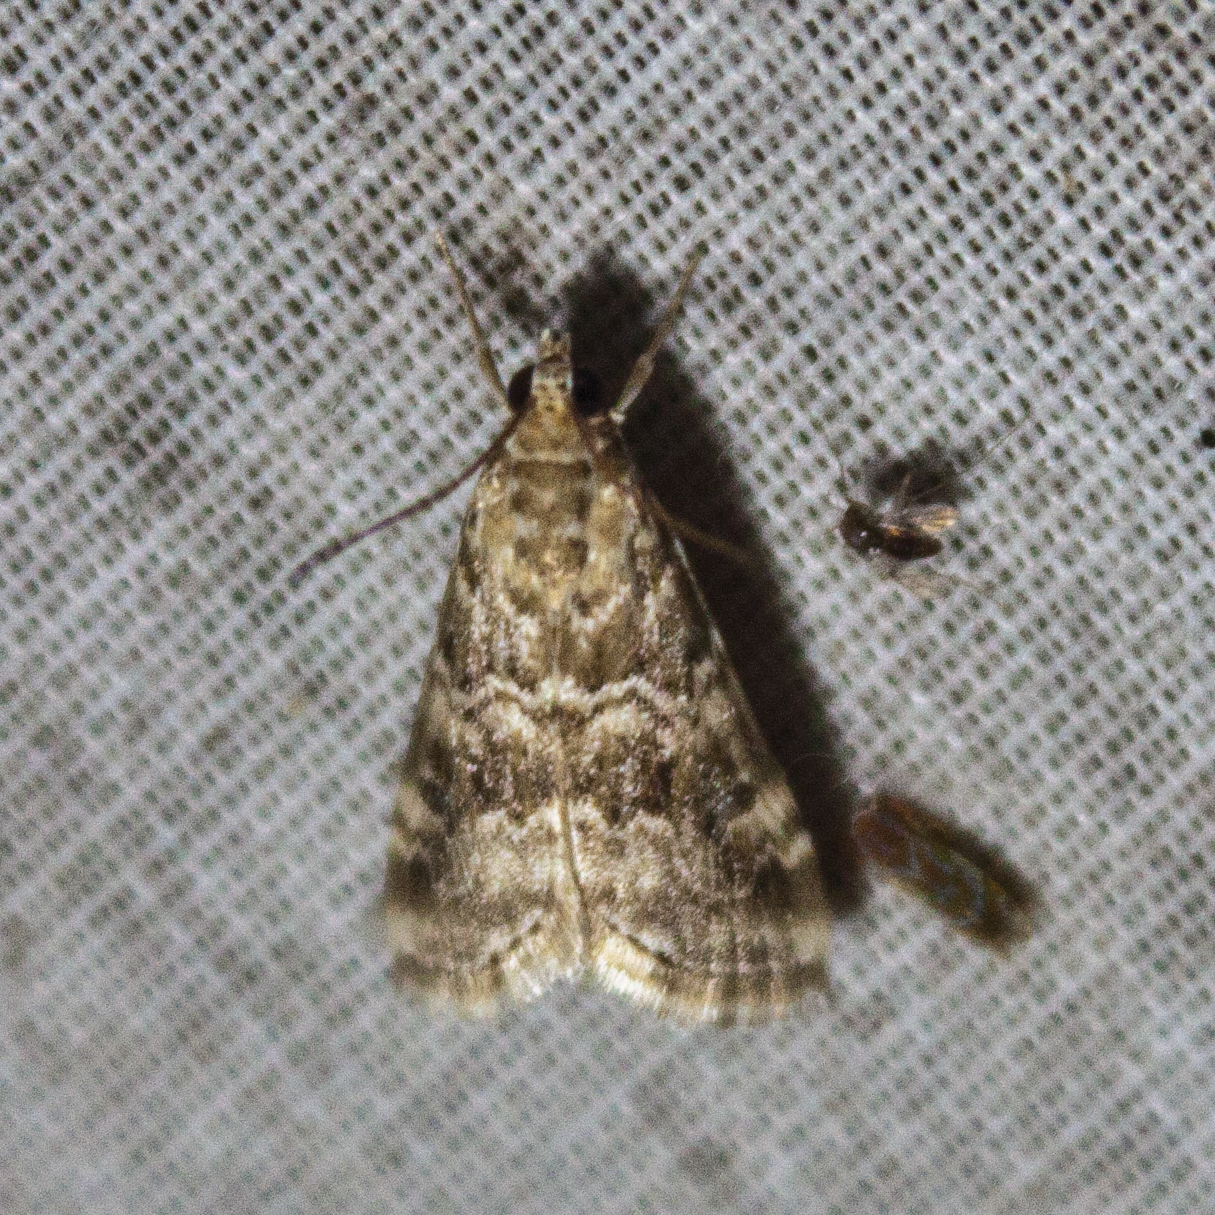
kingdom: Animalia
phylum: Arthropoda
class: Insecta
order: Lepidoptera
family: Crambidae
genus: Hellula
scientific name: Hellula undalis
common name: Cabbage webworm
